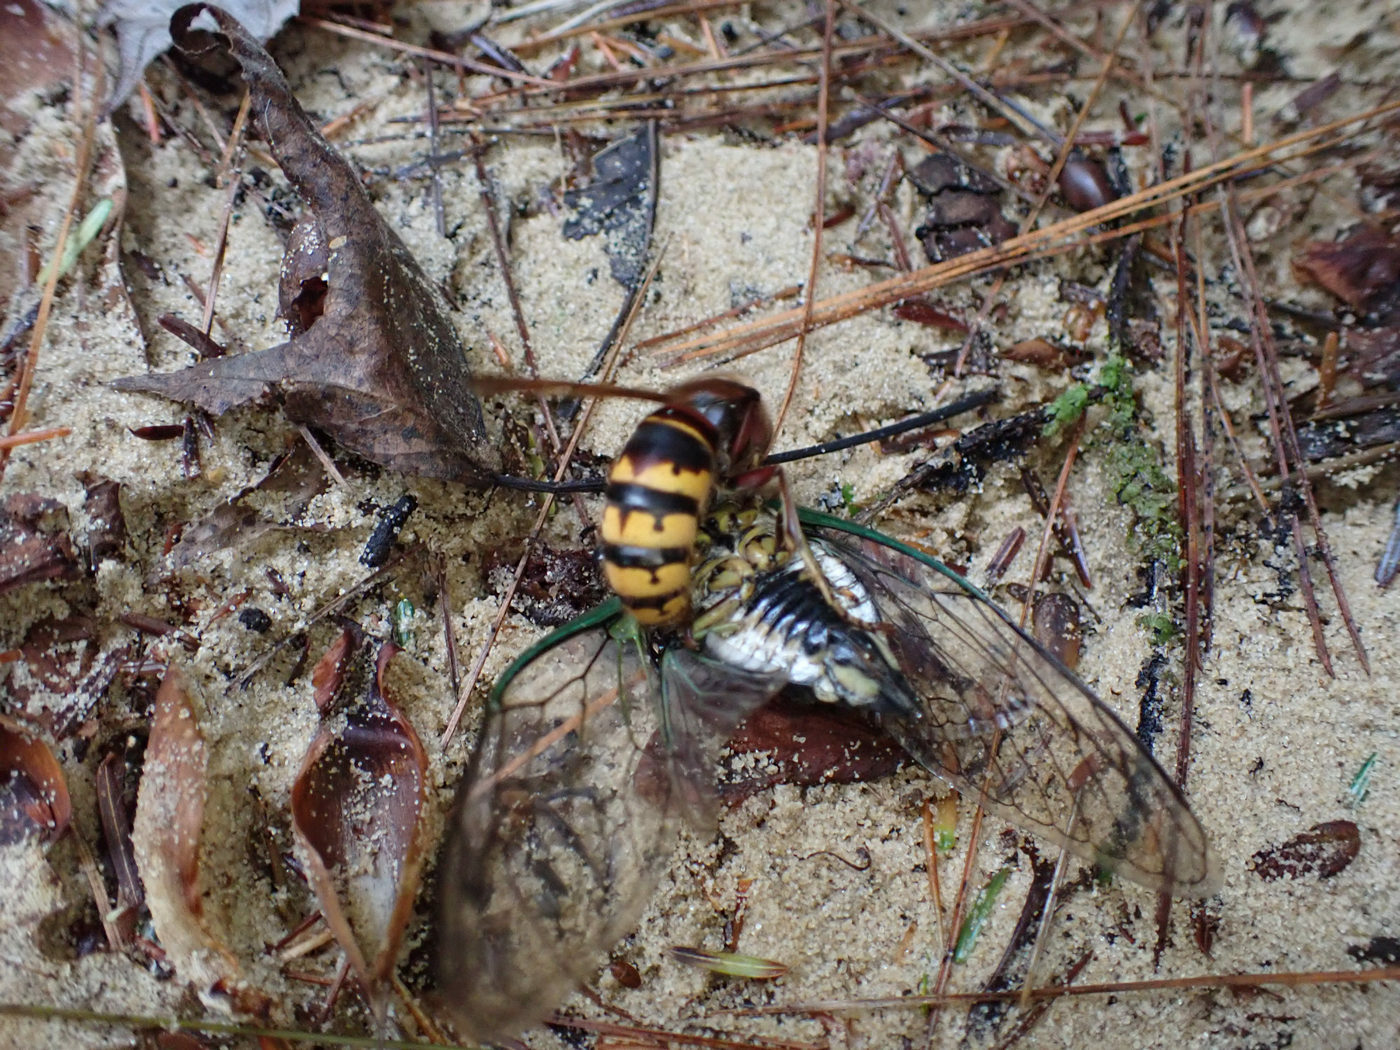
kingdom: Animalia
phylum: Arthropoda
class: Insecta
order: Hymenoptera
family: Vespidae
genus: Vespa
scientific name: Vespa crabro
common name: Hornet
